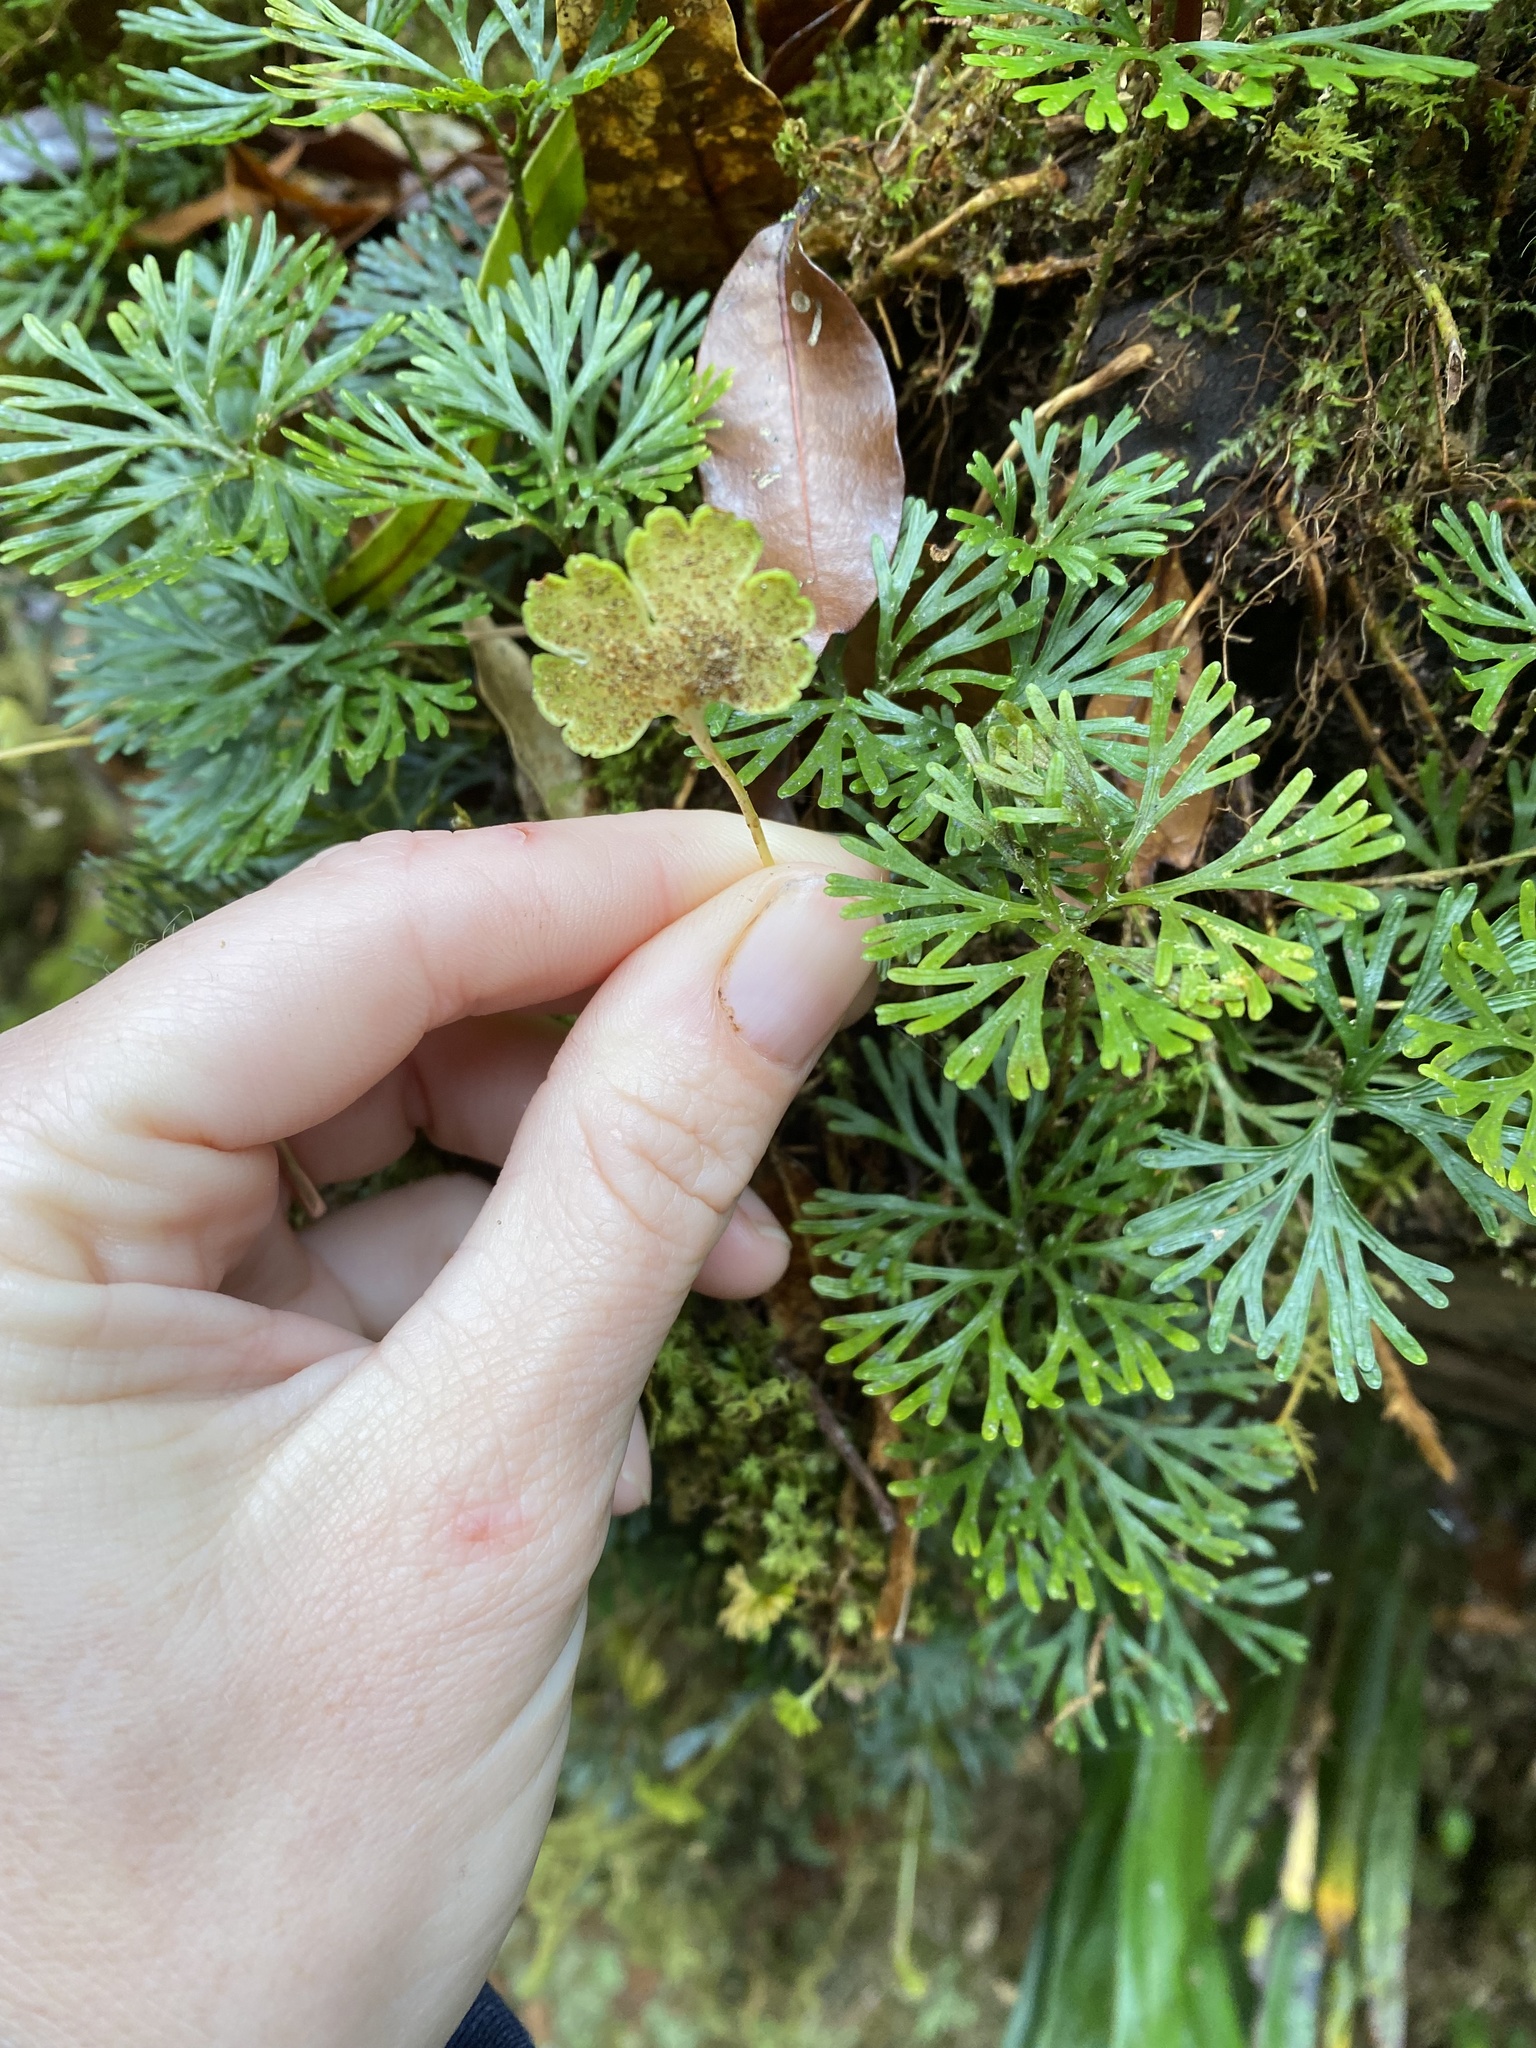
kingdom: Plantae
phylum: Tracheophyta
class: Polypodiopsida
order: Polypodiales
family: Dryopteridaceae
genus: Elaphoglossum
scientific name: Elaphoglossum peltatum
